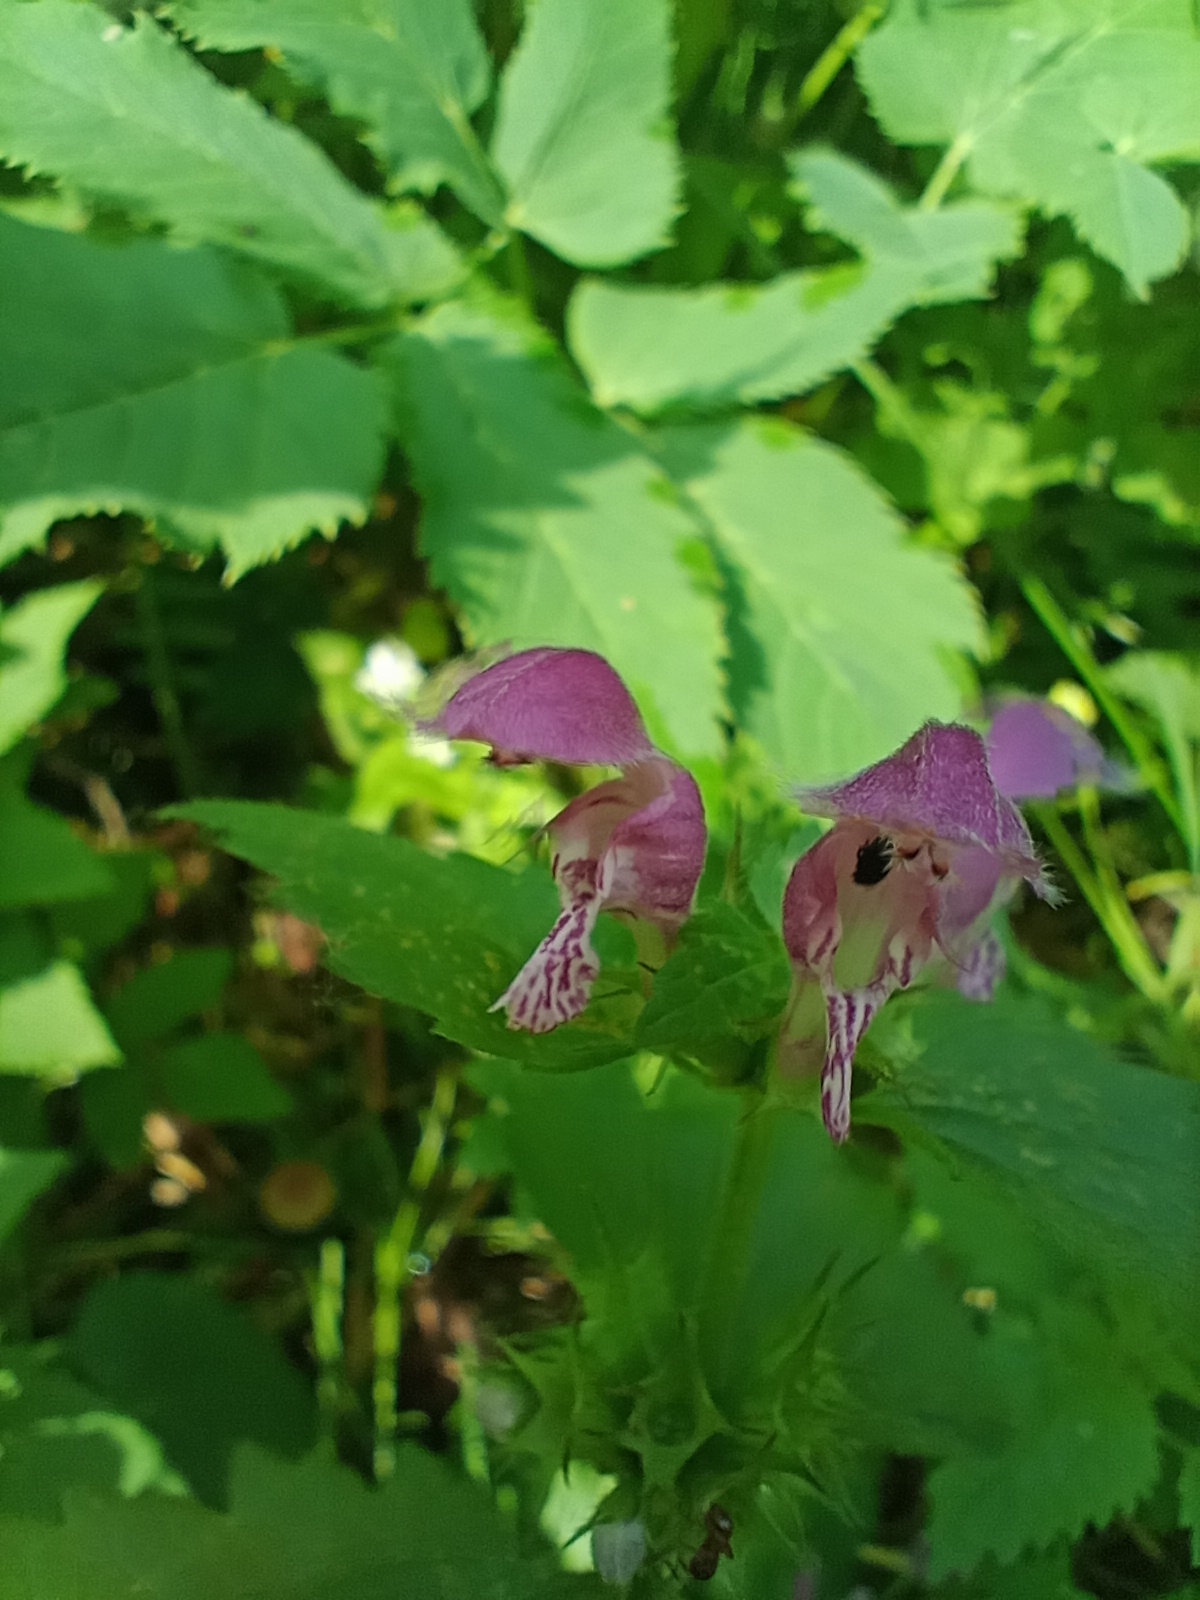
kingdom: Plantae
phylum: Tracheophyta
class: Magnoliopsida
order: Lamiales
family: Lamiaceae
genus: Lamium
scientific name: Lamium maculatum
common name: Spotted dead-nettle
